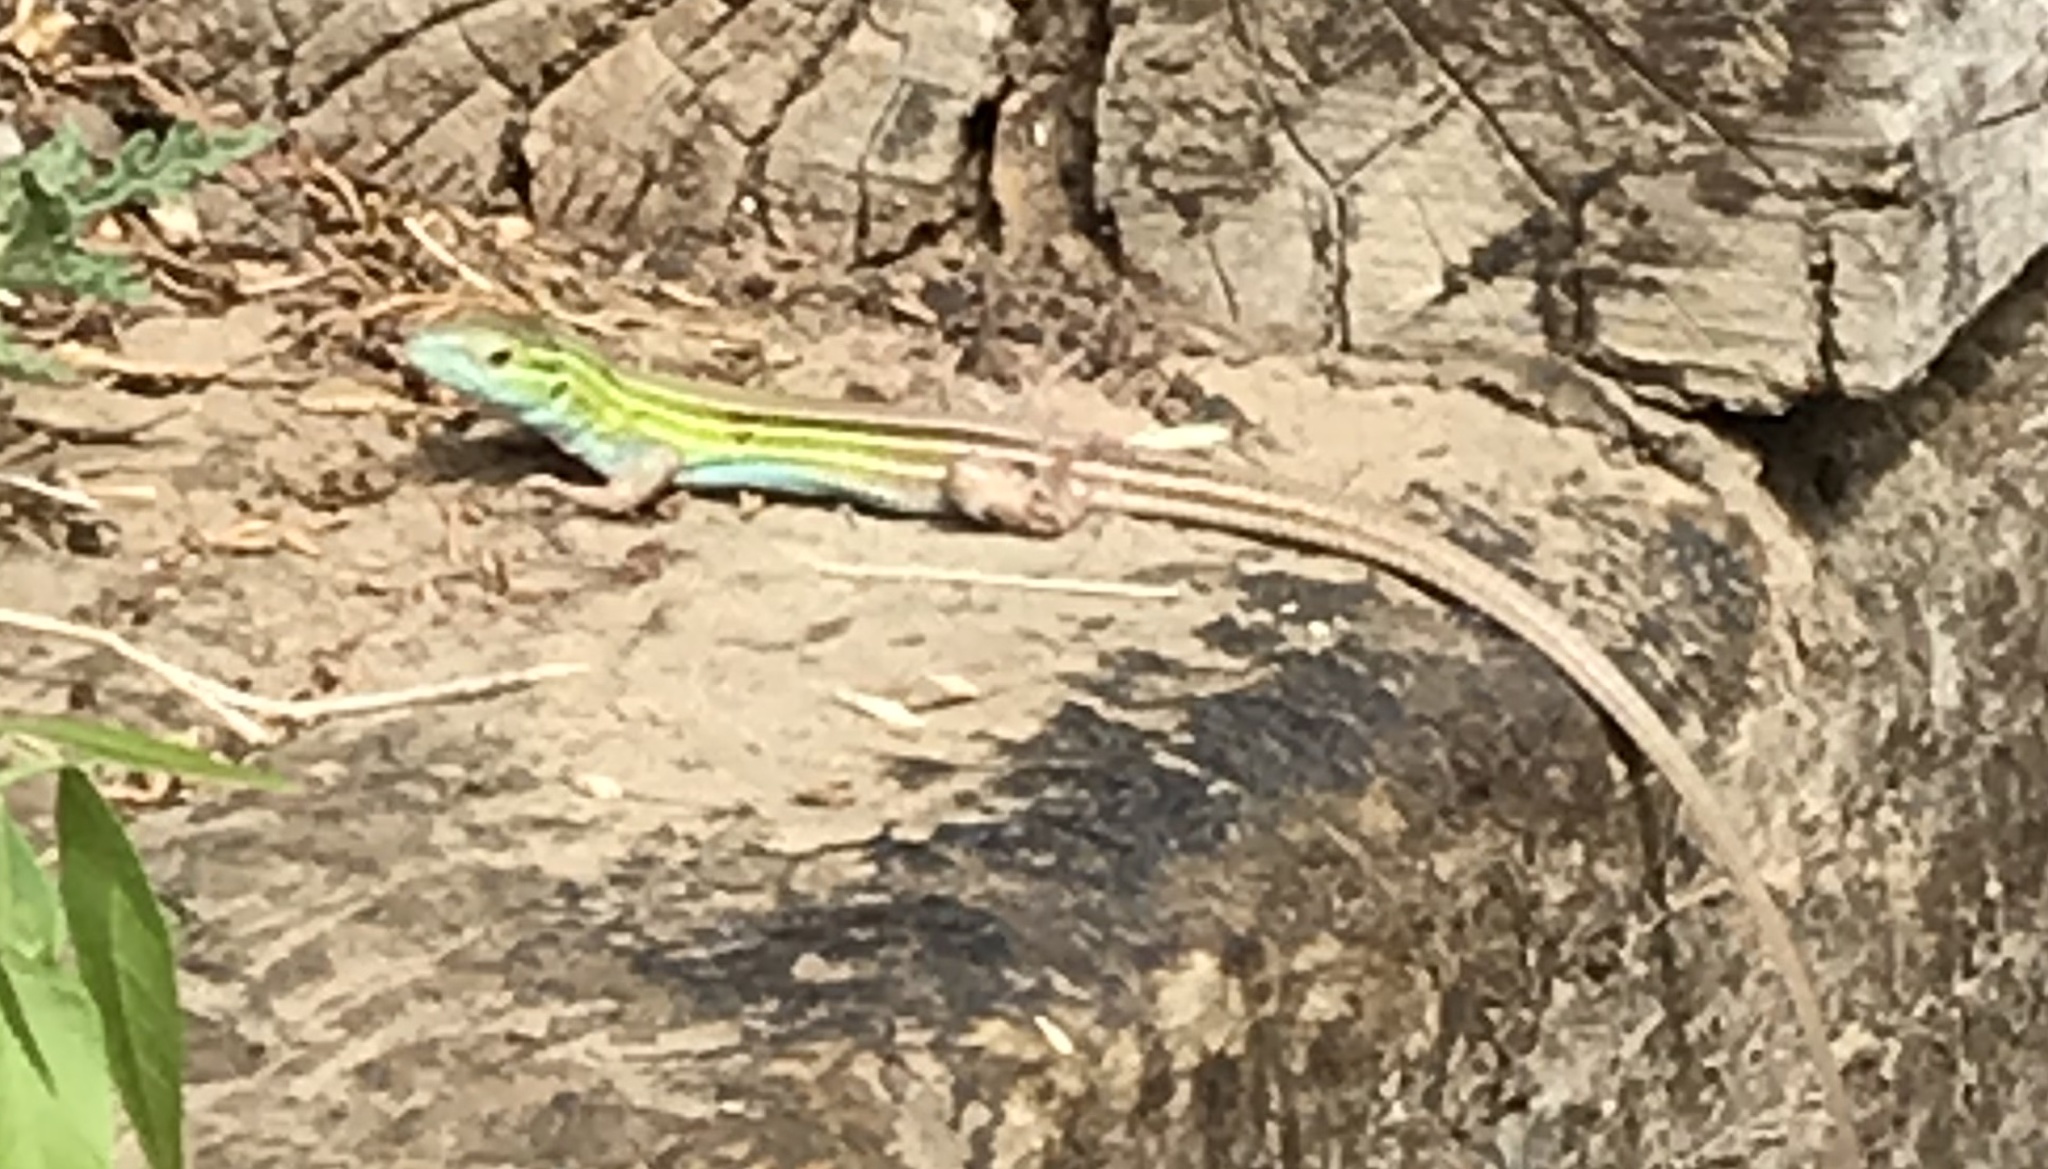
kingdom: Animalia
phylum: Chordata
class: Squamata
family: Teiidae
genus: Aspidoscelis
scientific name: Aspidoscelis sexlineatus
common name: Six-lined racerunner
